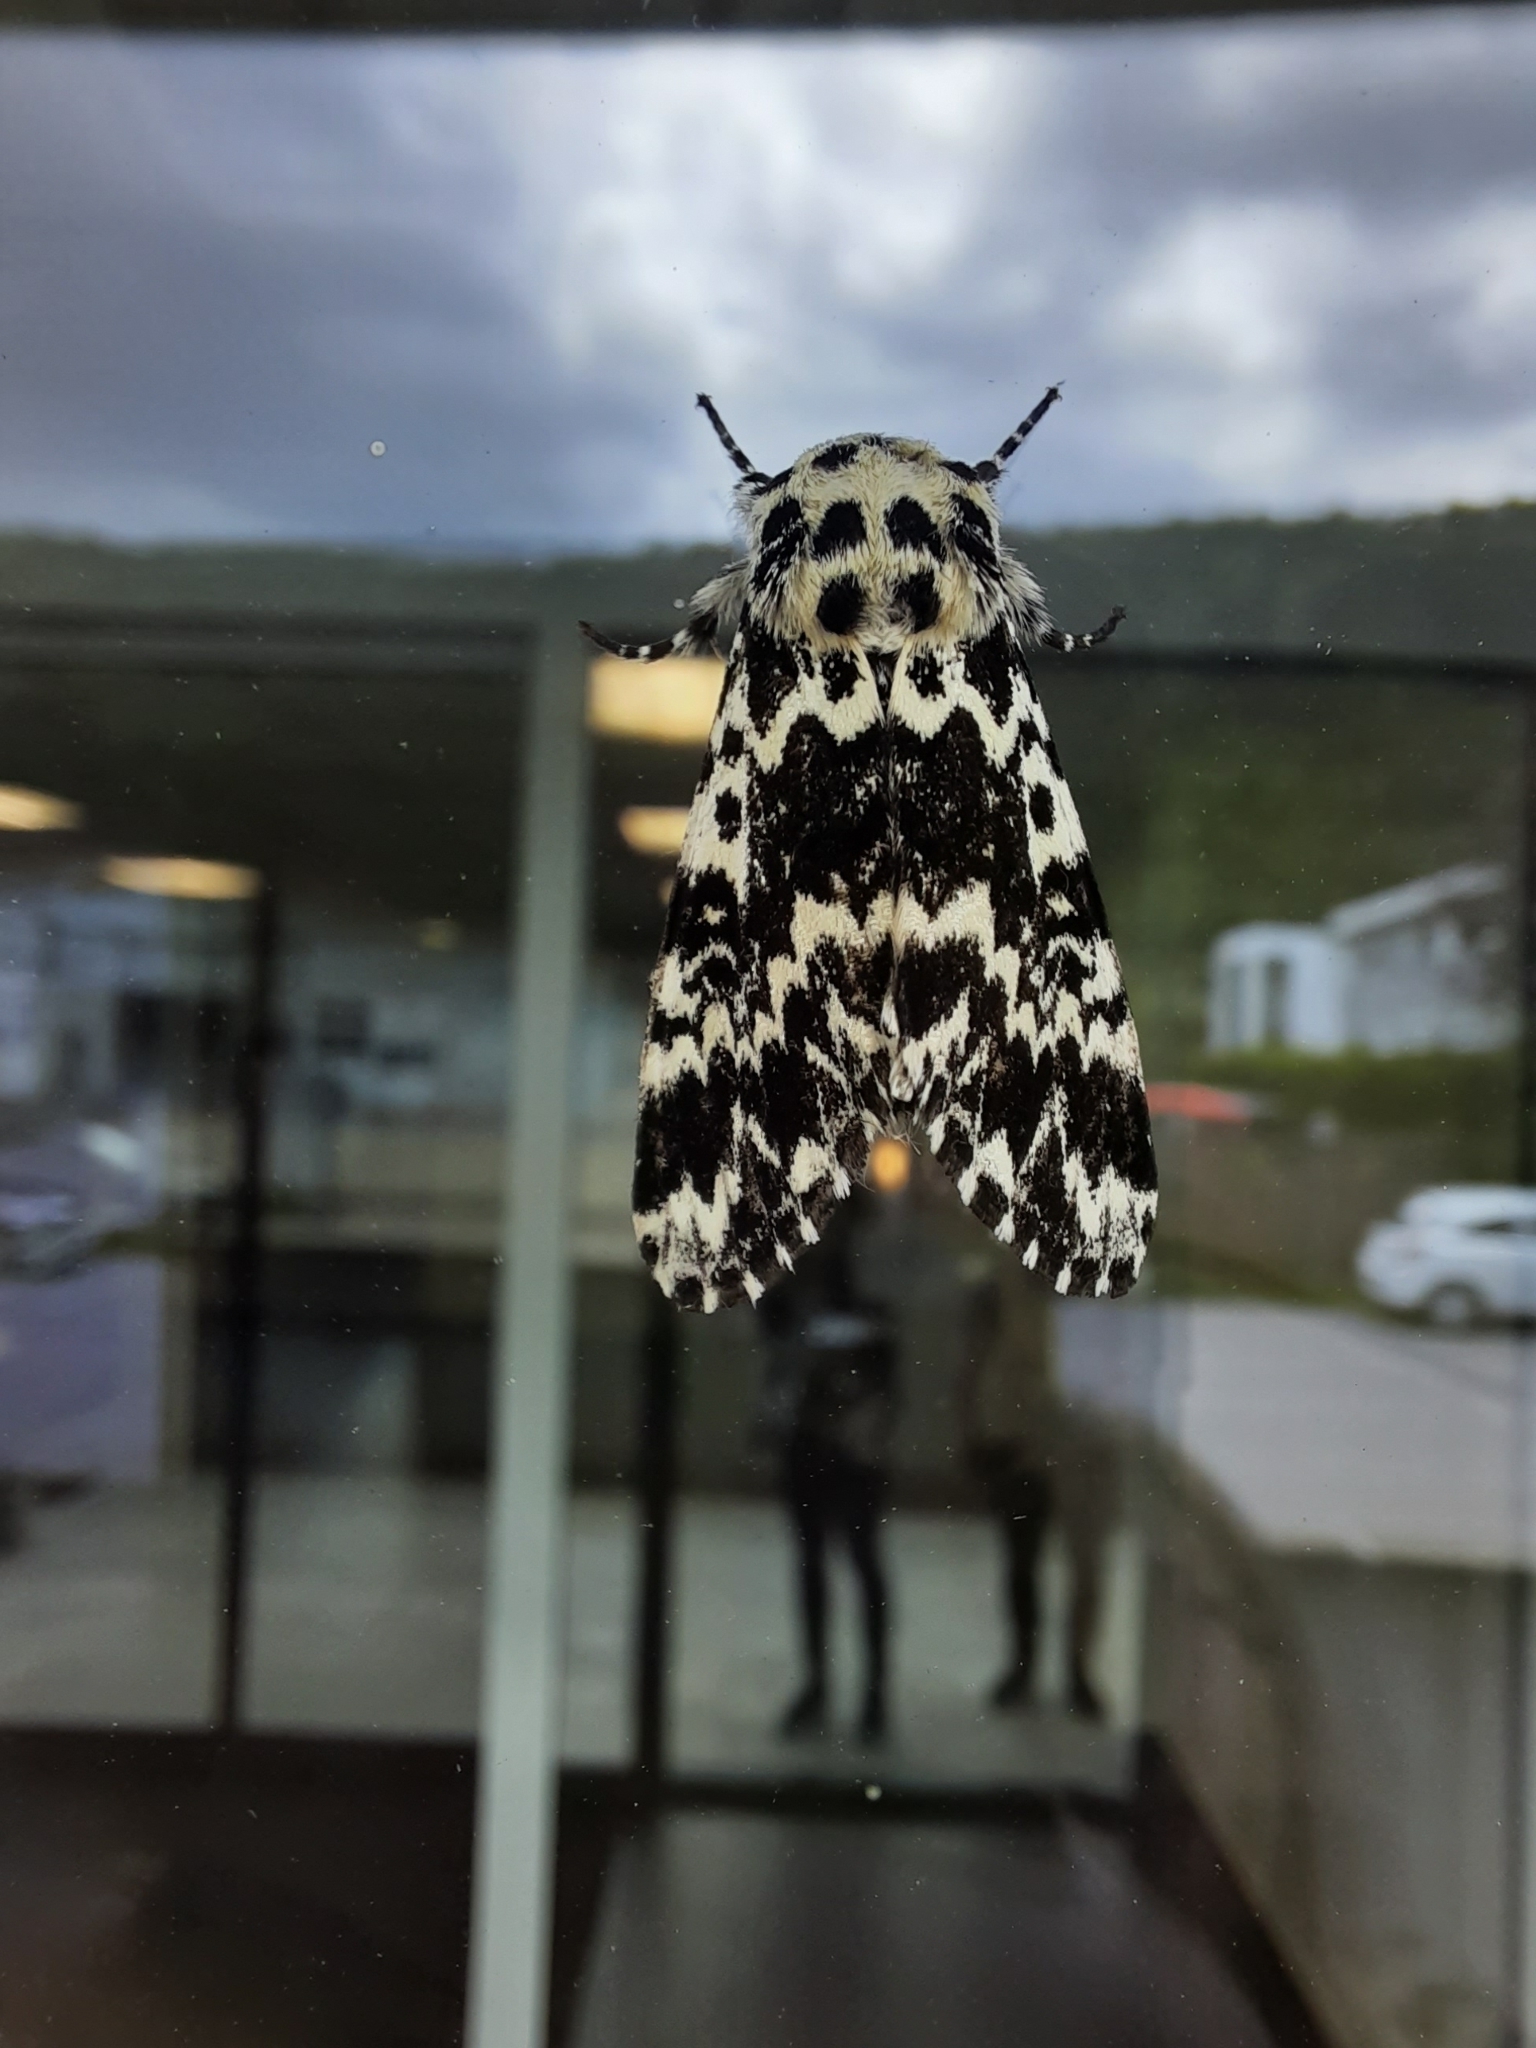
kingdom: Animalia
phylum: Arthropoda
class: Insecta
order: Lepidoptera
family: Noctuidae
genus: Panthea
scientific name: Panthea coenobita
